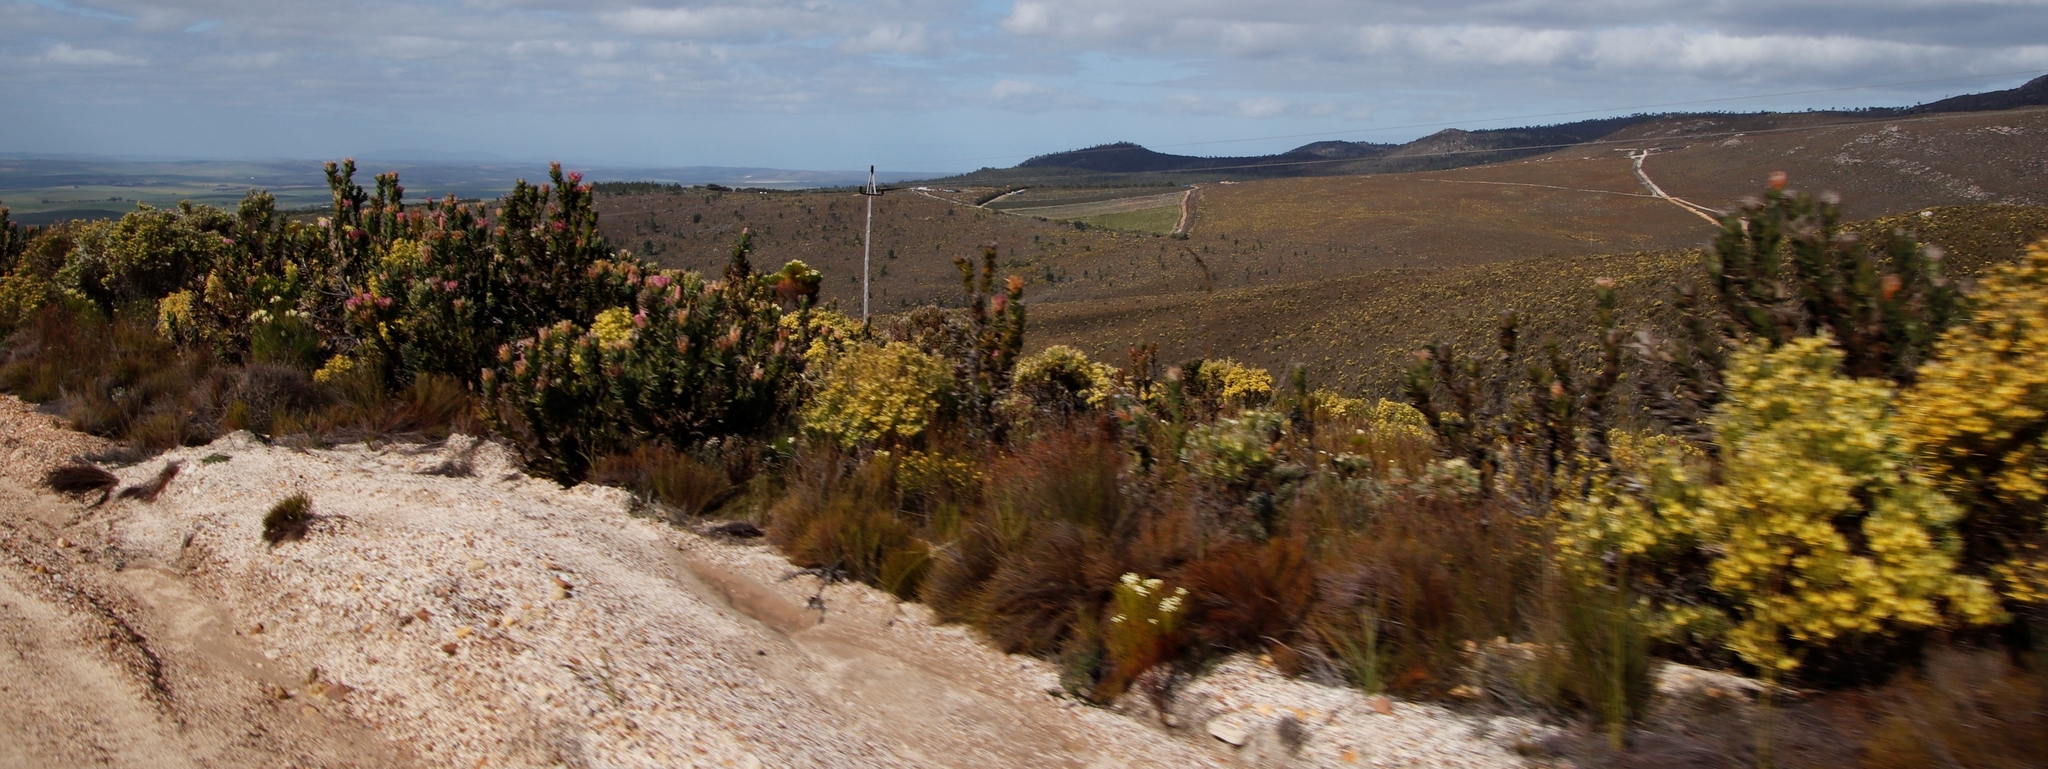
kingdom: Plantae
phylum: Tracheophyta
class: Magnoliopsida
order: Proteales
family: Proteaceae
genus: Protea
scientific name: Protea compacta
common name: Bot river protea
